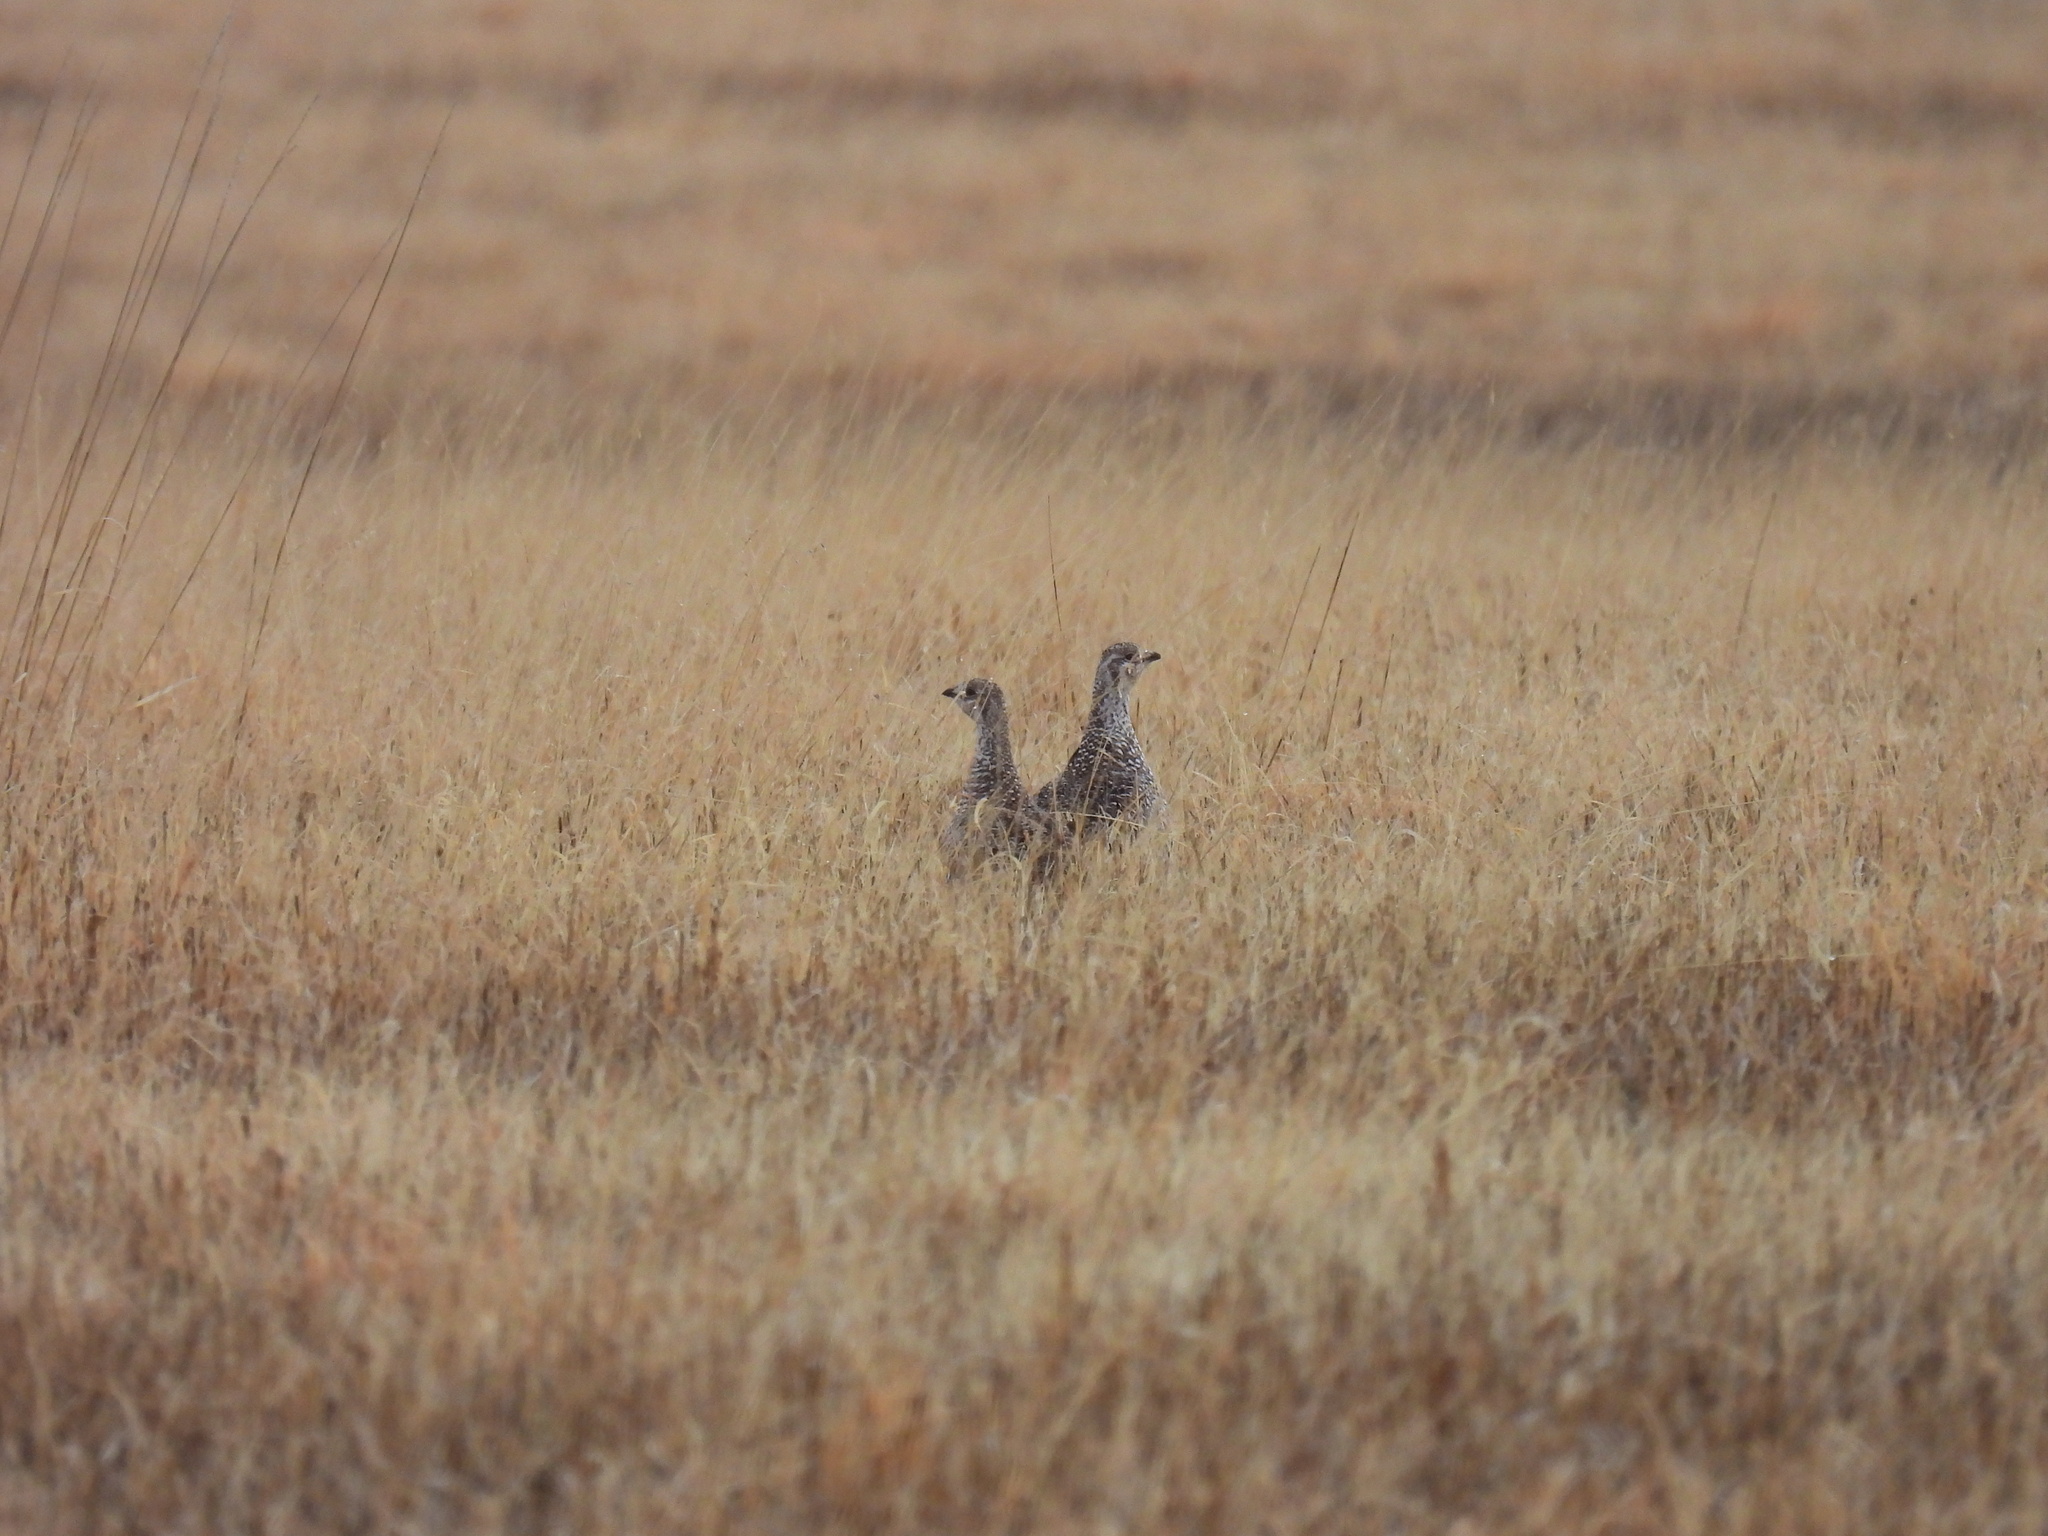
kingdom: Animalia
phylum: Chordata
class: Aves
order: Galliformes
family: Phasianidae
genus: Tympanuchus
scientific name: Tympanuchus phasianellus
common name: Sharp-tailed grouse
